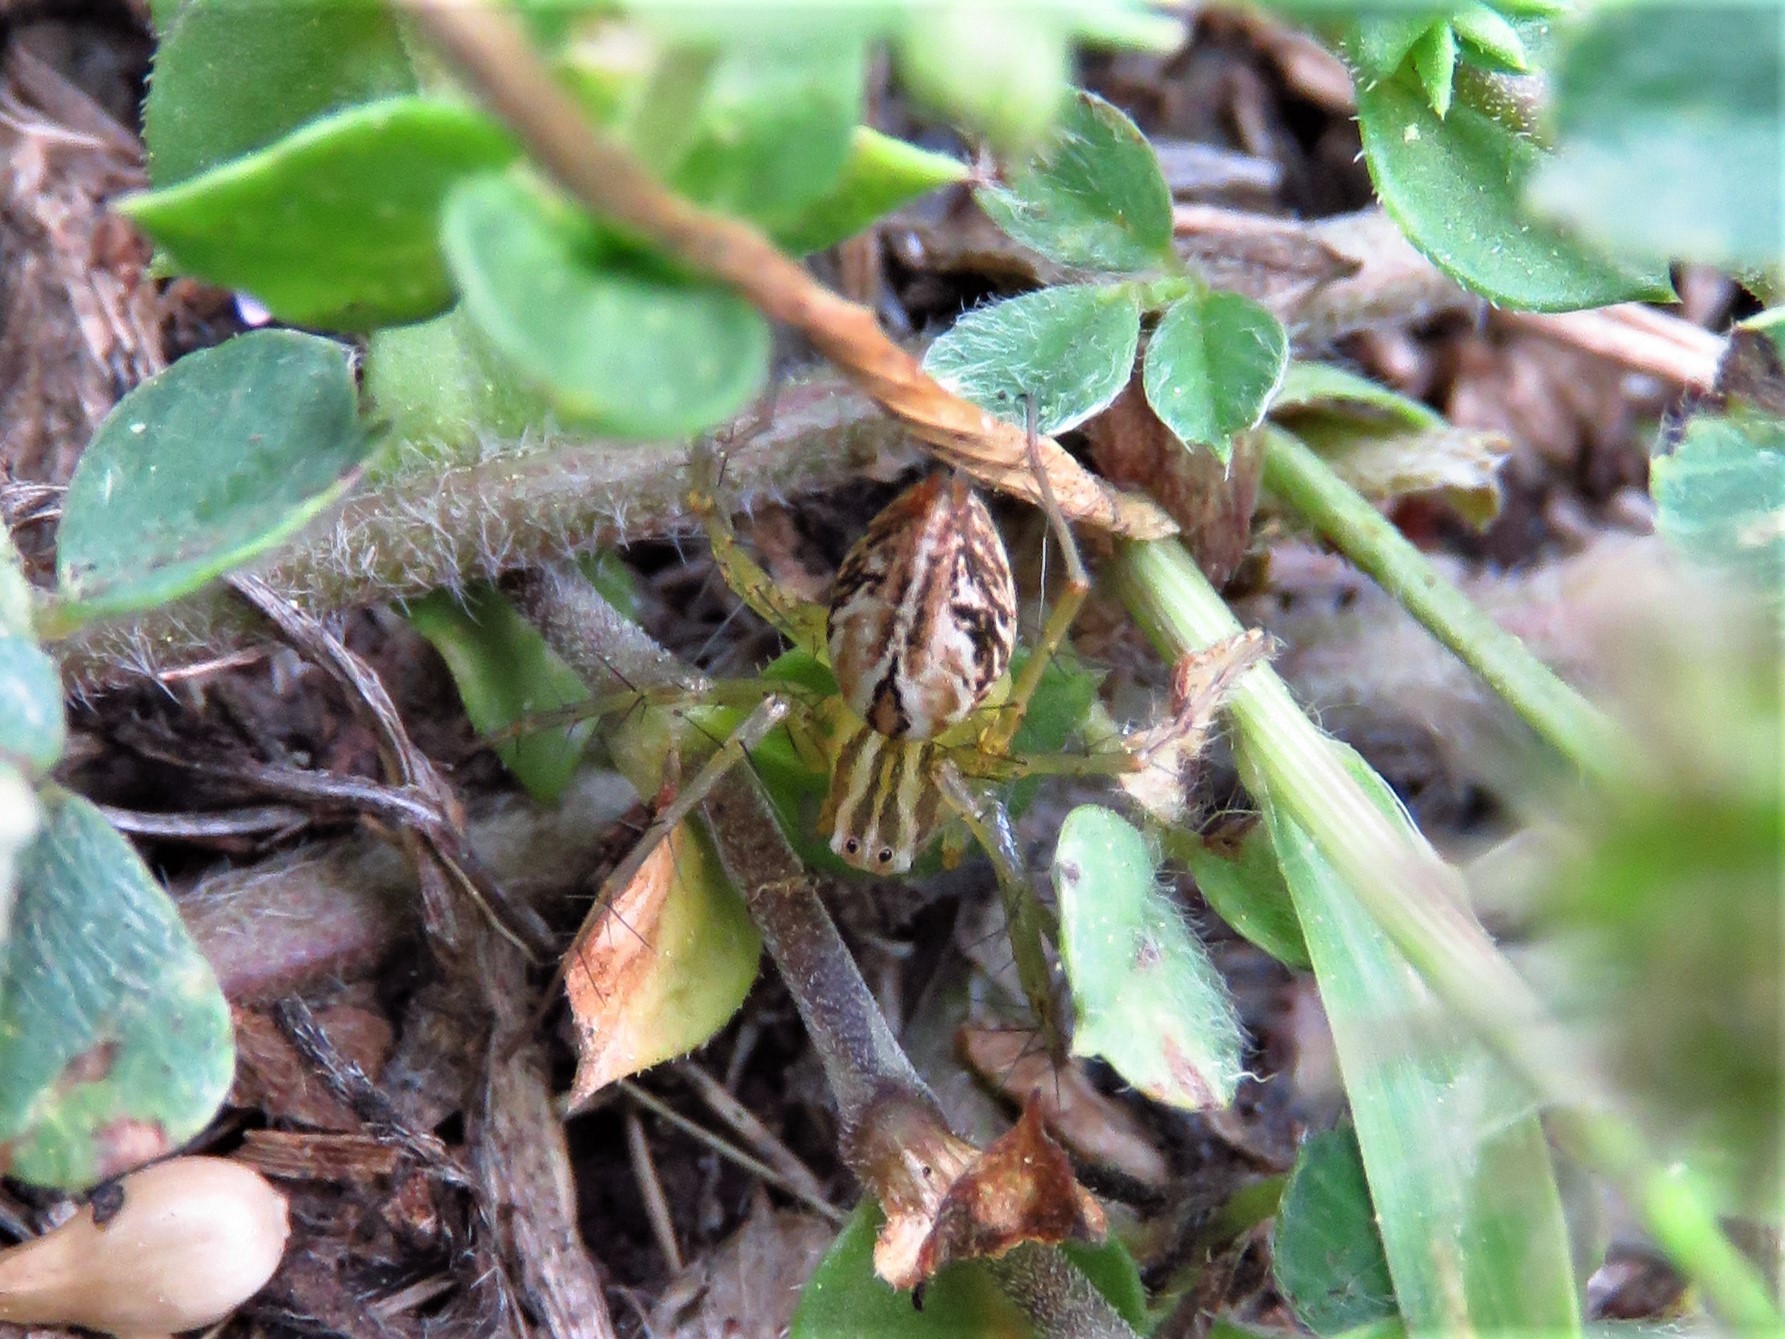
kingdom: Animalia
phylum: Arthropoda
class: Arachnida
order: Araneae
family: Oxyopidae
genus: Oxyopes
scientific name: Oxyopes salticus
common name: Lynx spiders
